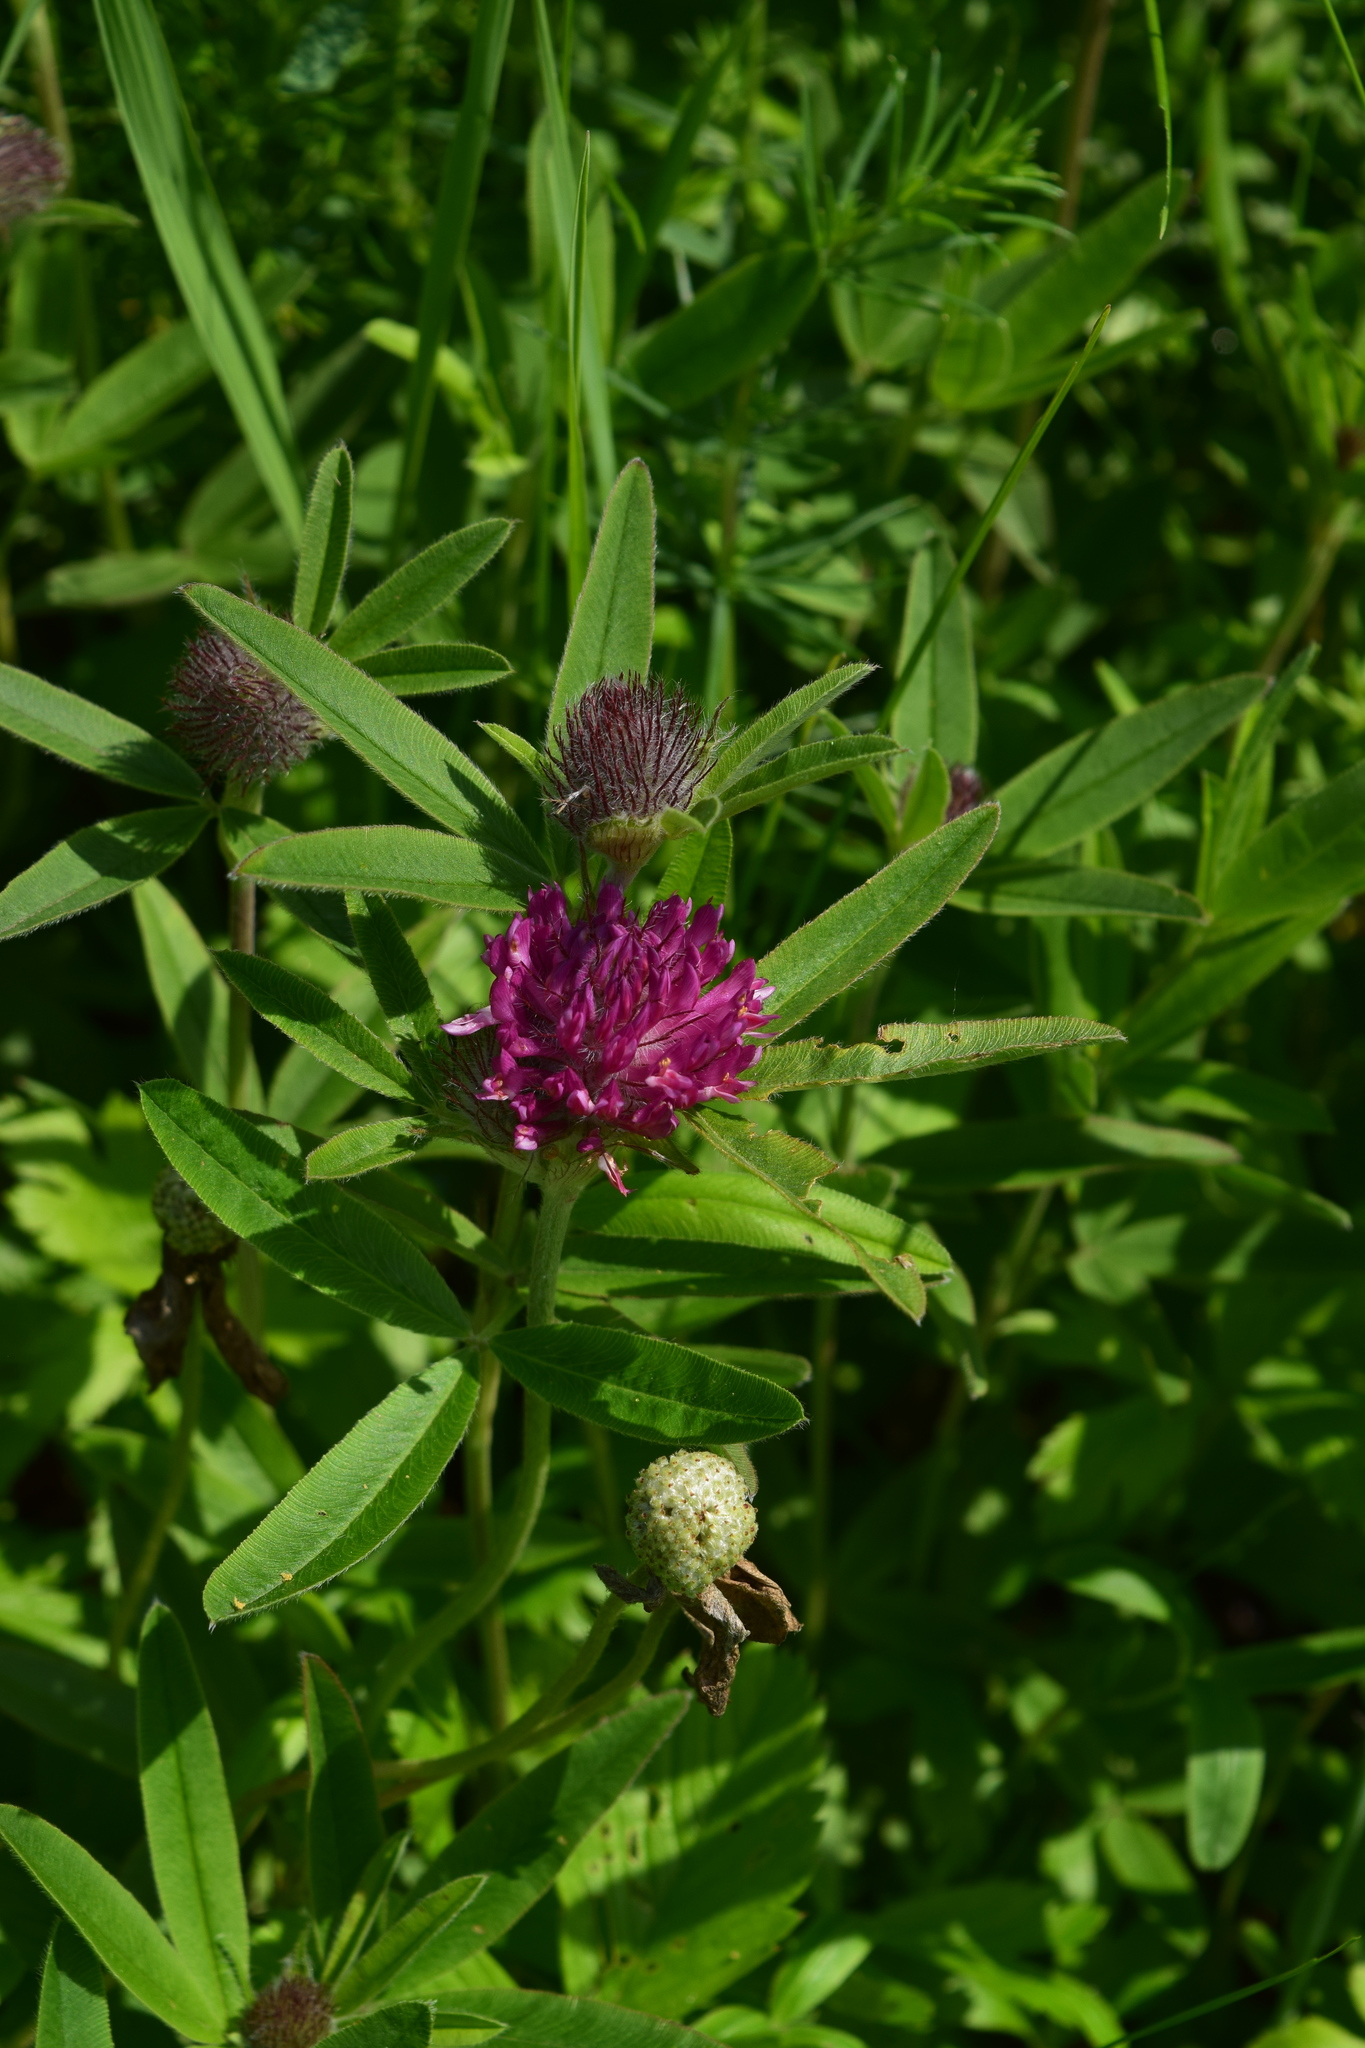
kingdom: Plantae
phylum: Tracheophyta
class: Magnoliopsida
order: Fabales
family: Fabaceae
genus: Trifolium
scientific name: Trifolium alpestre
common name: Owl-head clover
